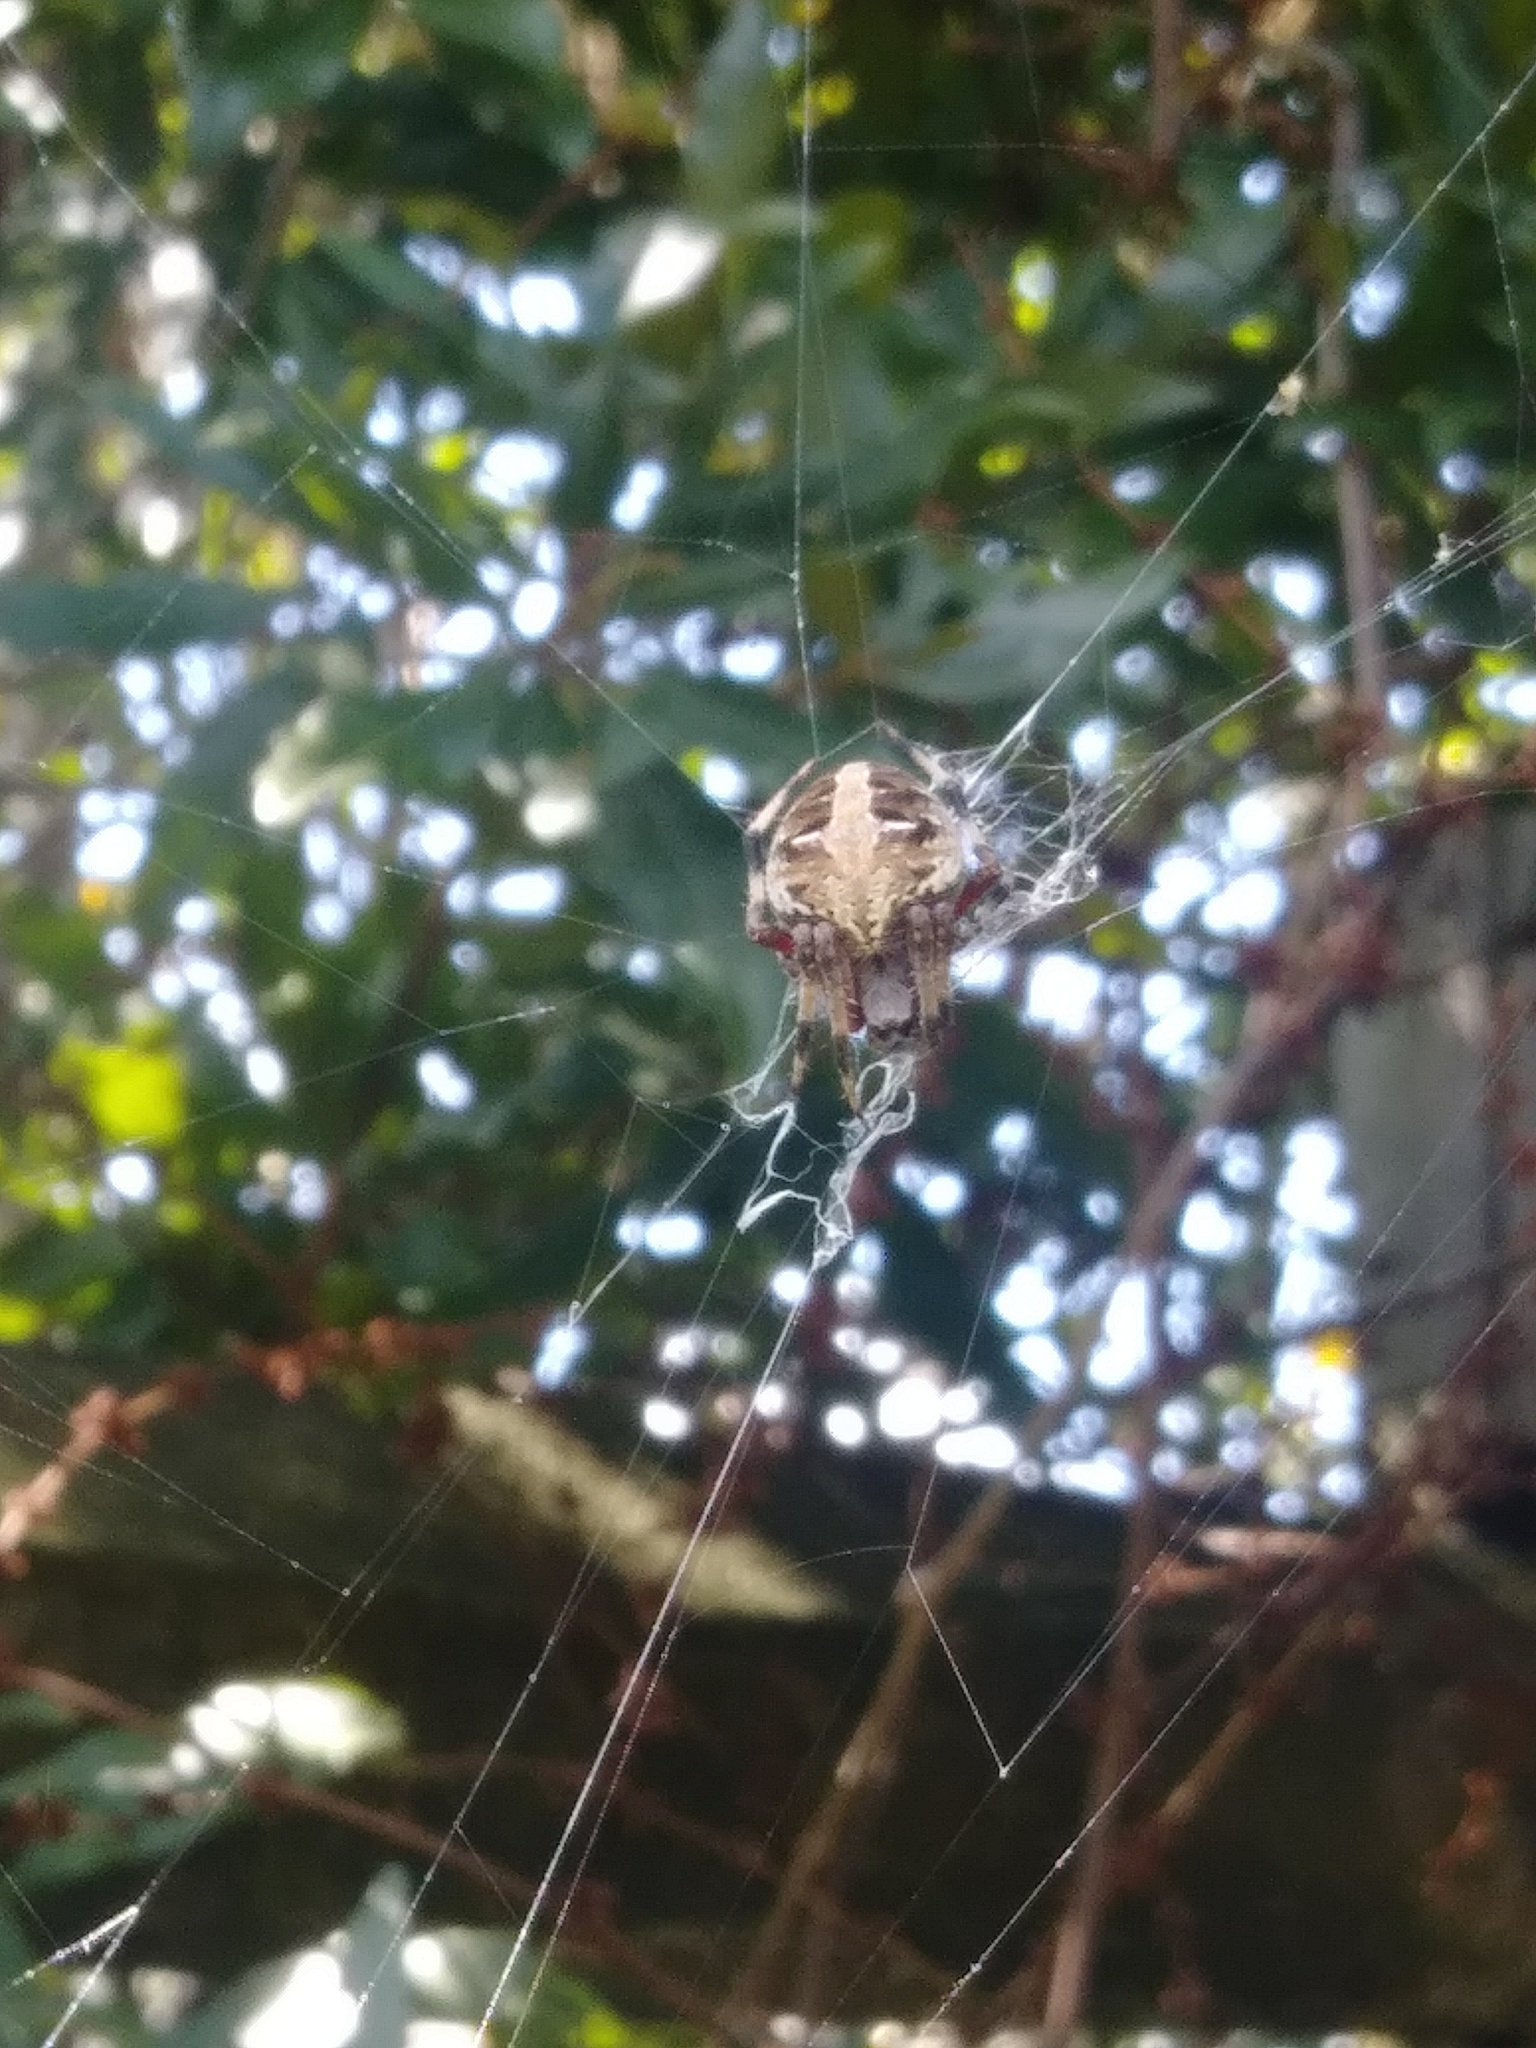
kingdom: Animalia
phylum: Arthropoda
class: Arachnida
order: Araneae
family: Araneidae
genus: Neoscona
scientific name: Neoscona domiciliorum
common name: Red-femured spotted orbweaver
